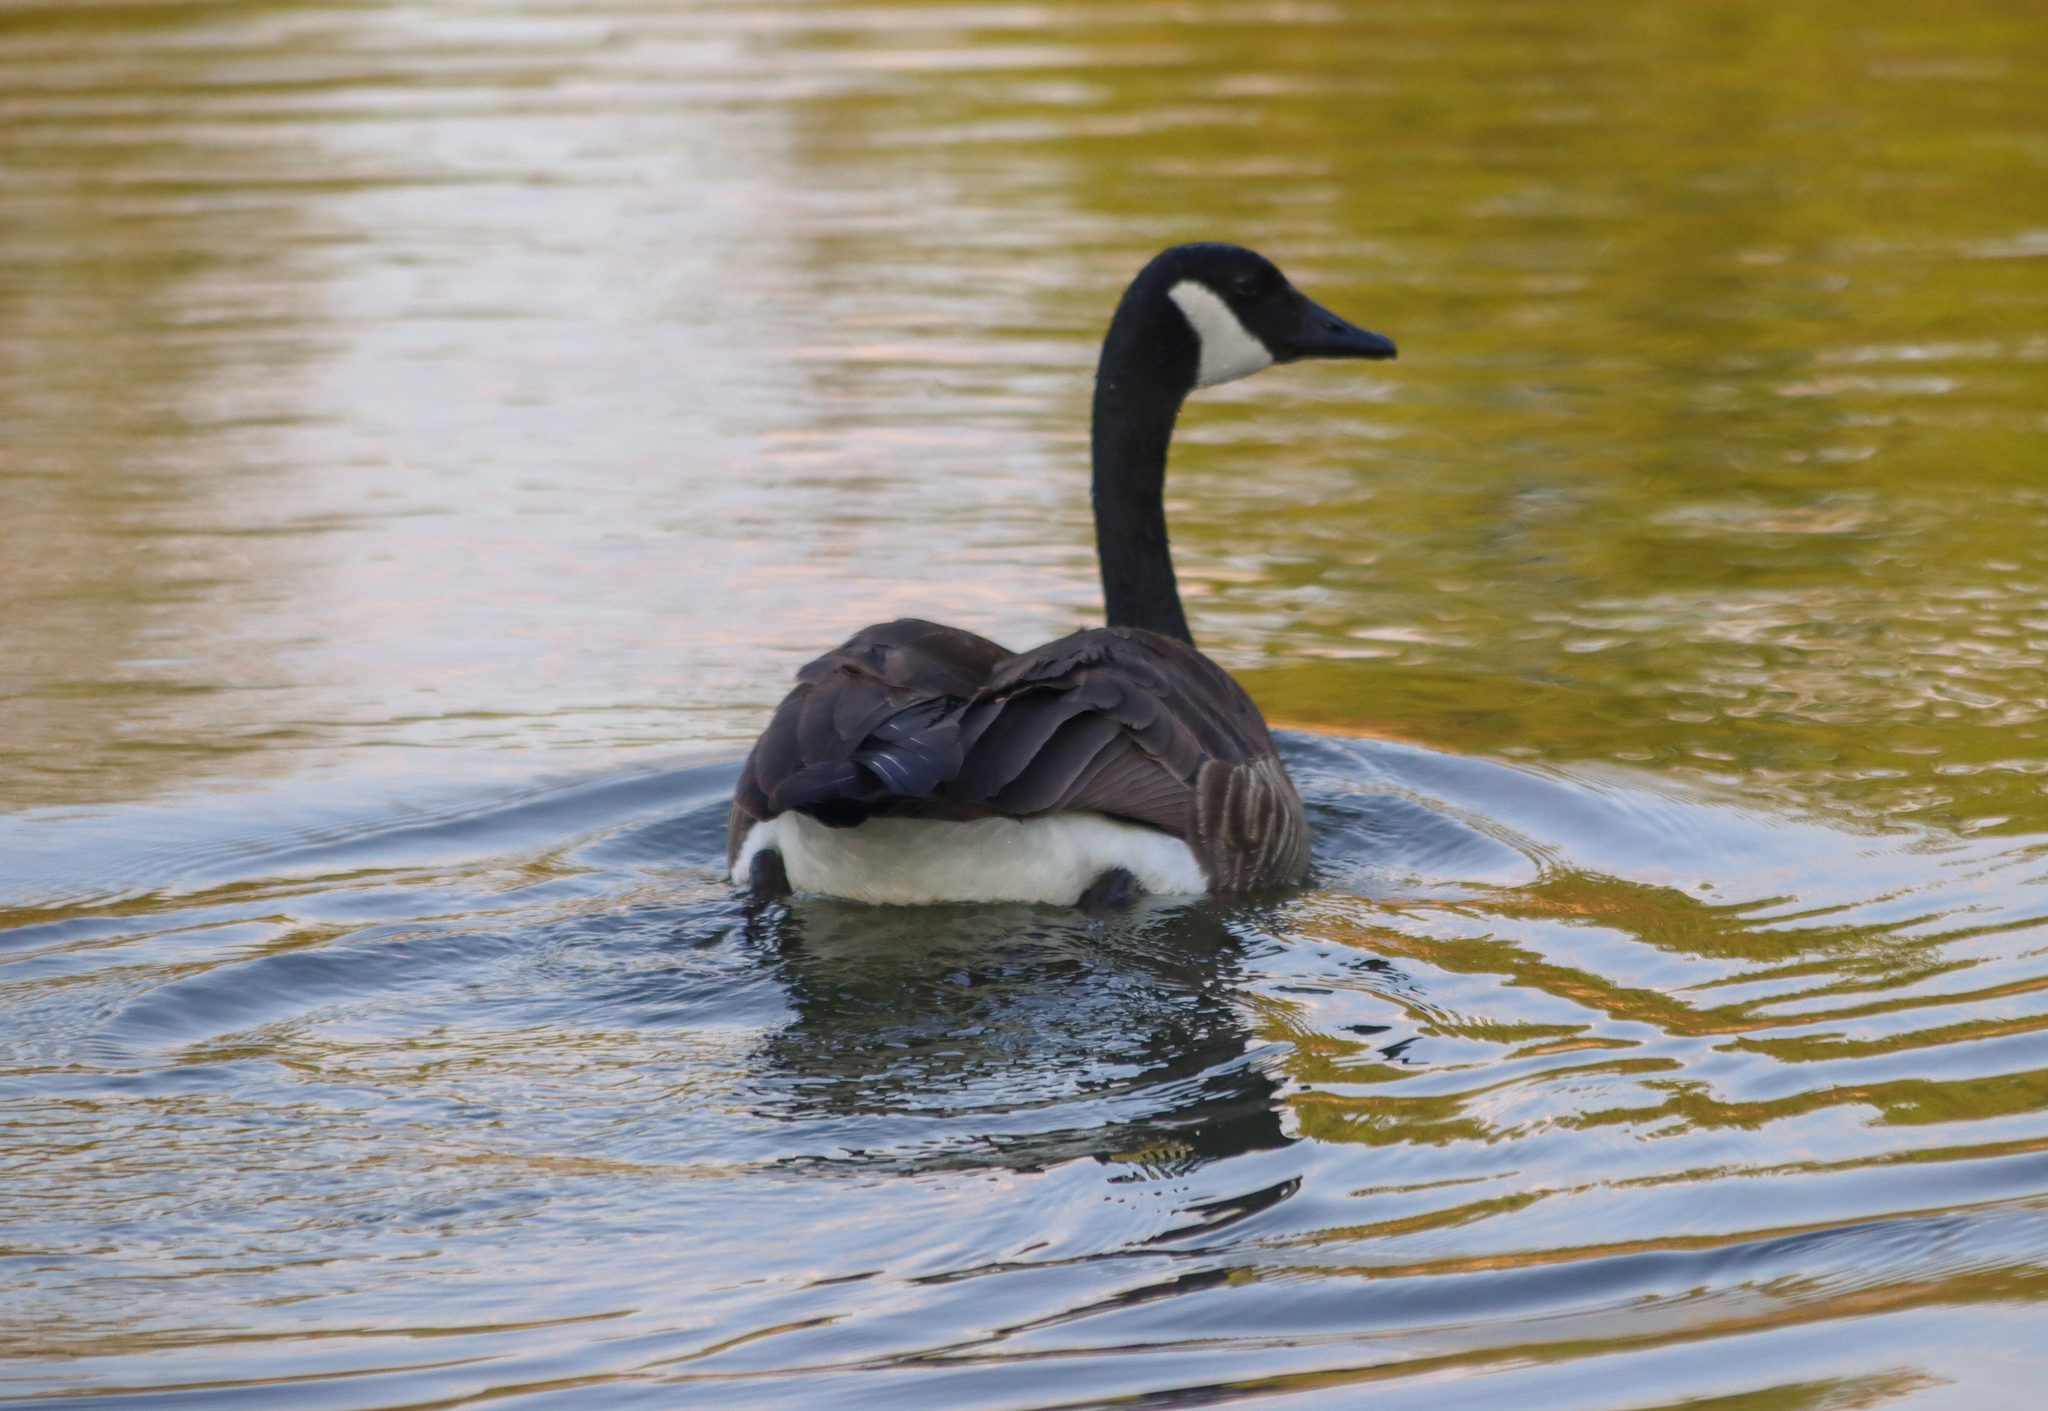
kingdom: Animalia
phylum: Chordata
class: Aves
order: Anseriformes
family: Anatidae
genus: Branta
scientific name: Branta canadensis
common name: Canada goose
